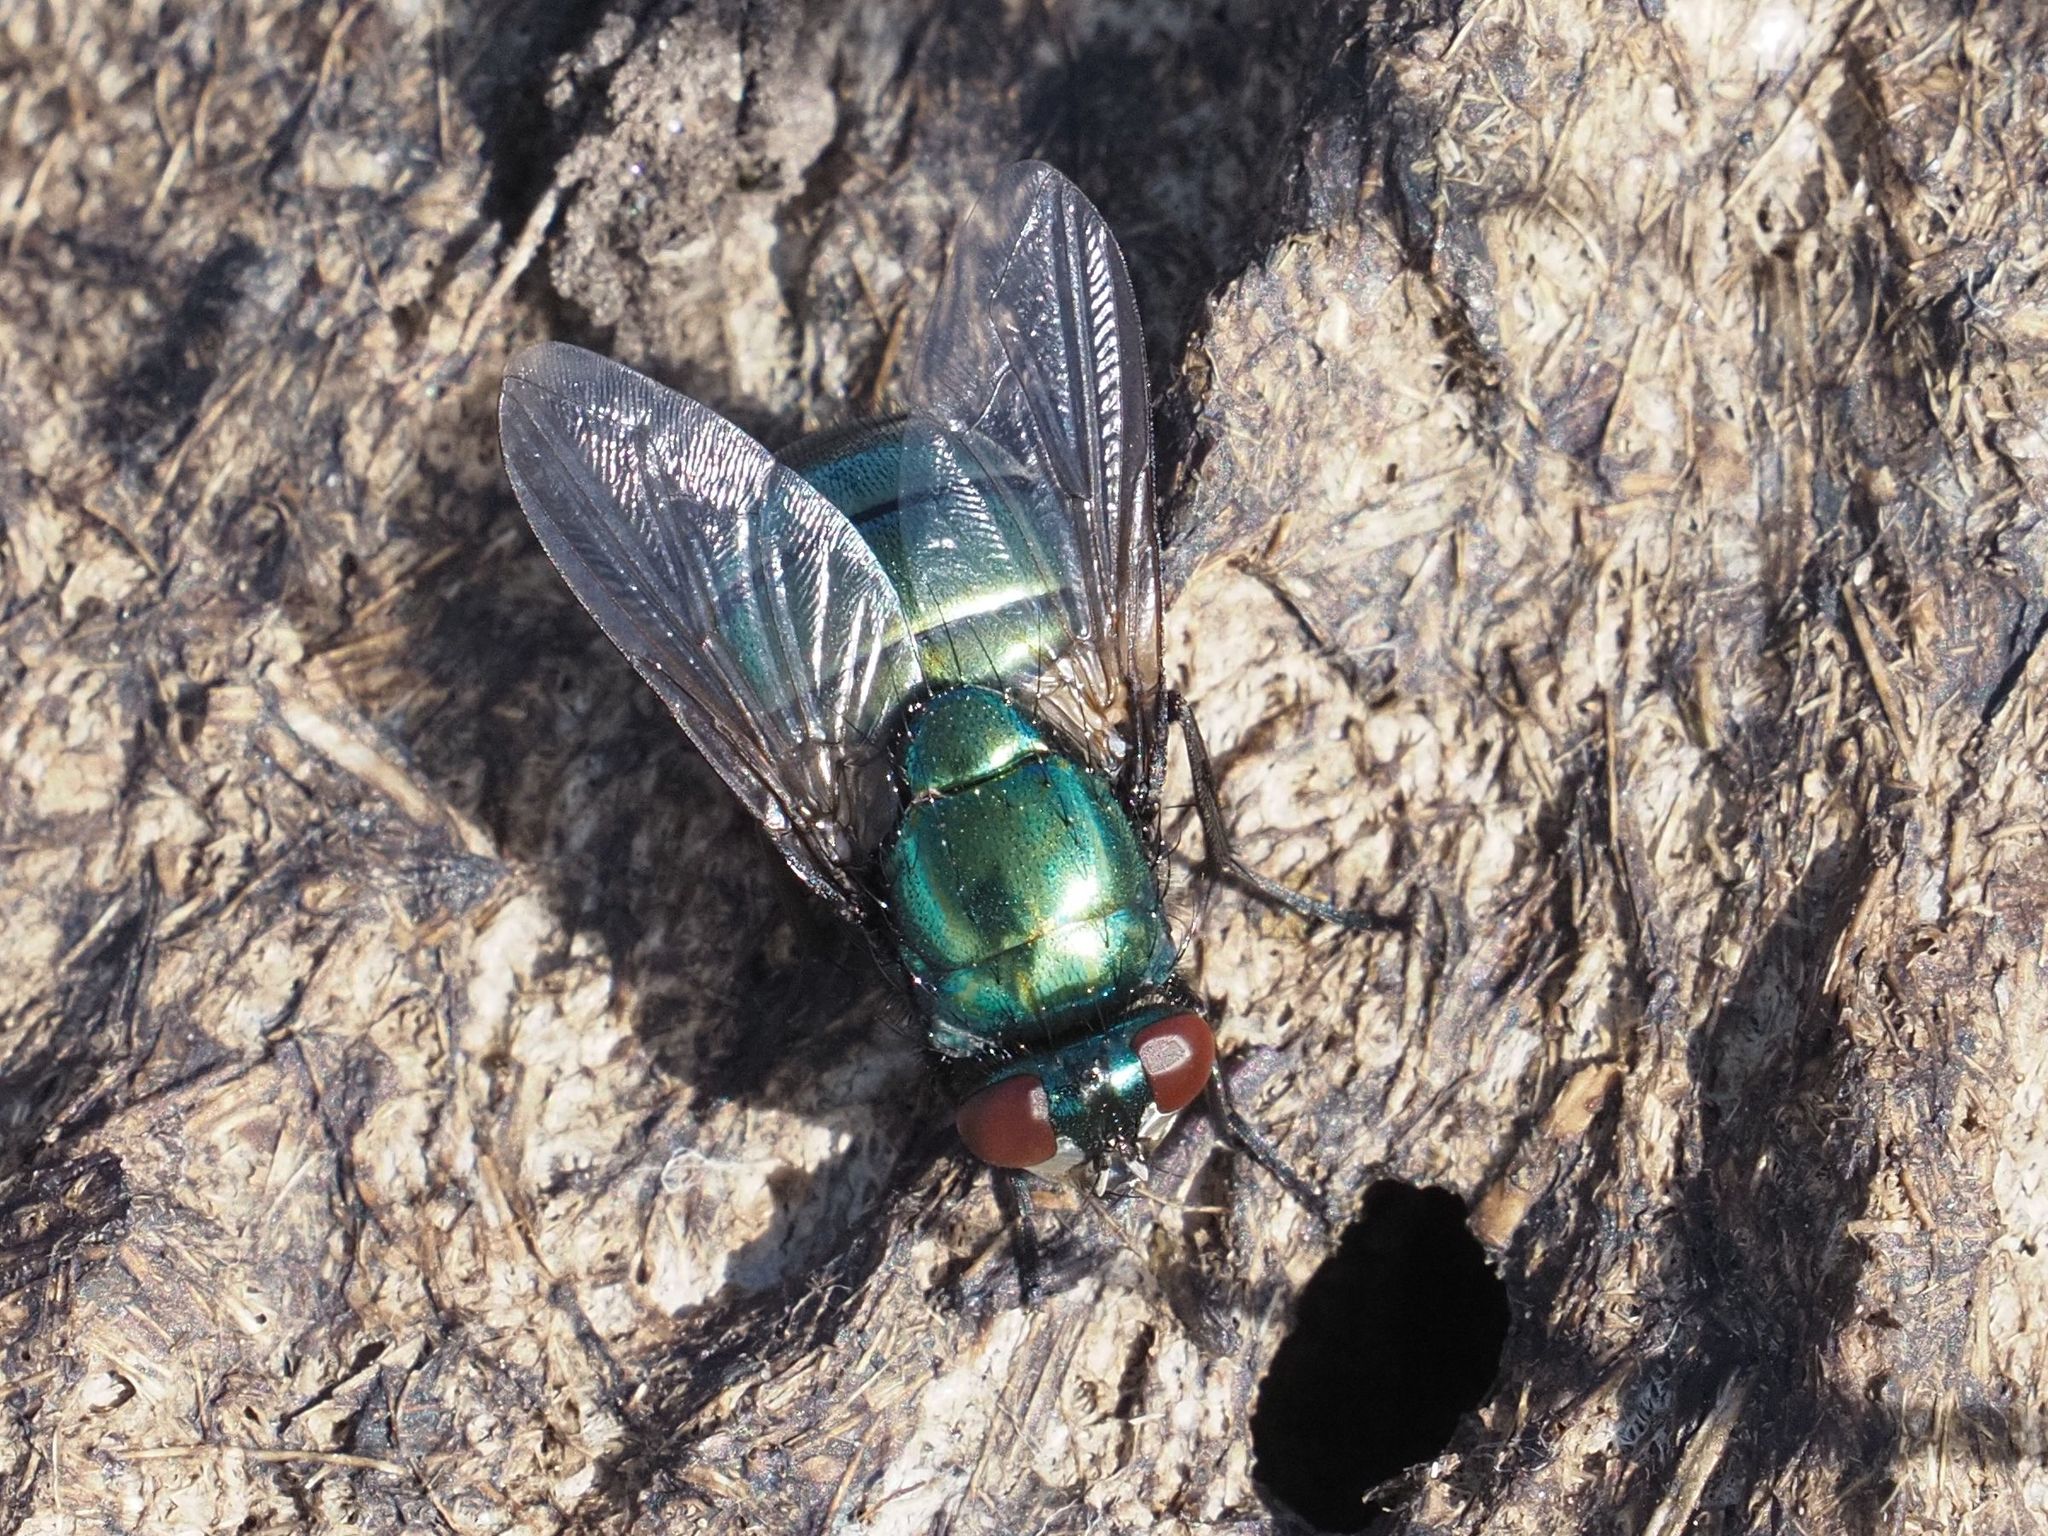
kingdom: Animalia
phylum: Arthropoda
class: Insecta
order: Diptera
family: Muscidae
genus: Neomyia
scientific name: Neomyia viridescens
